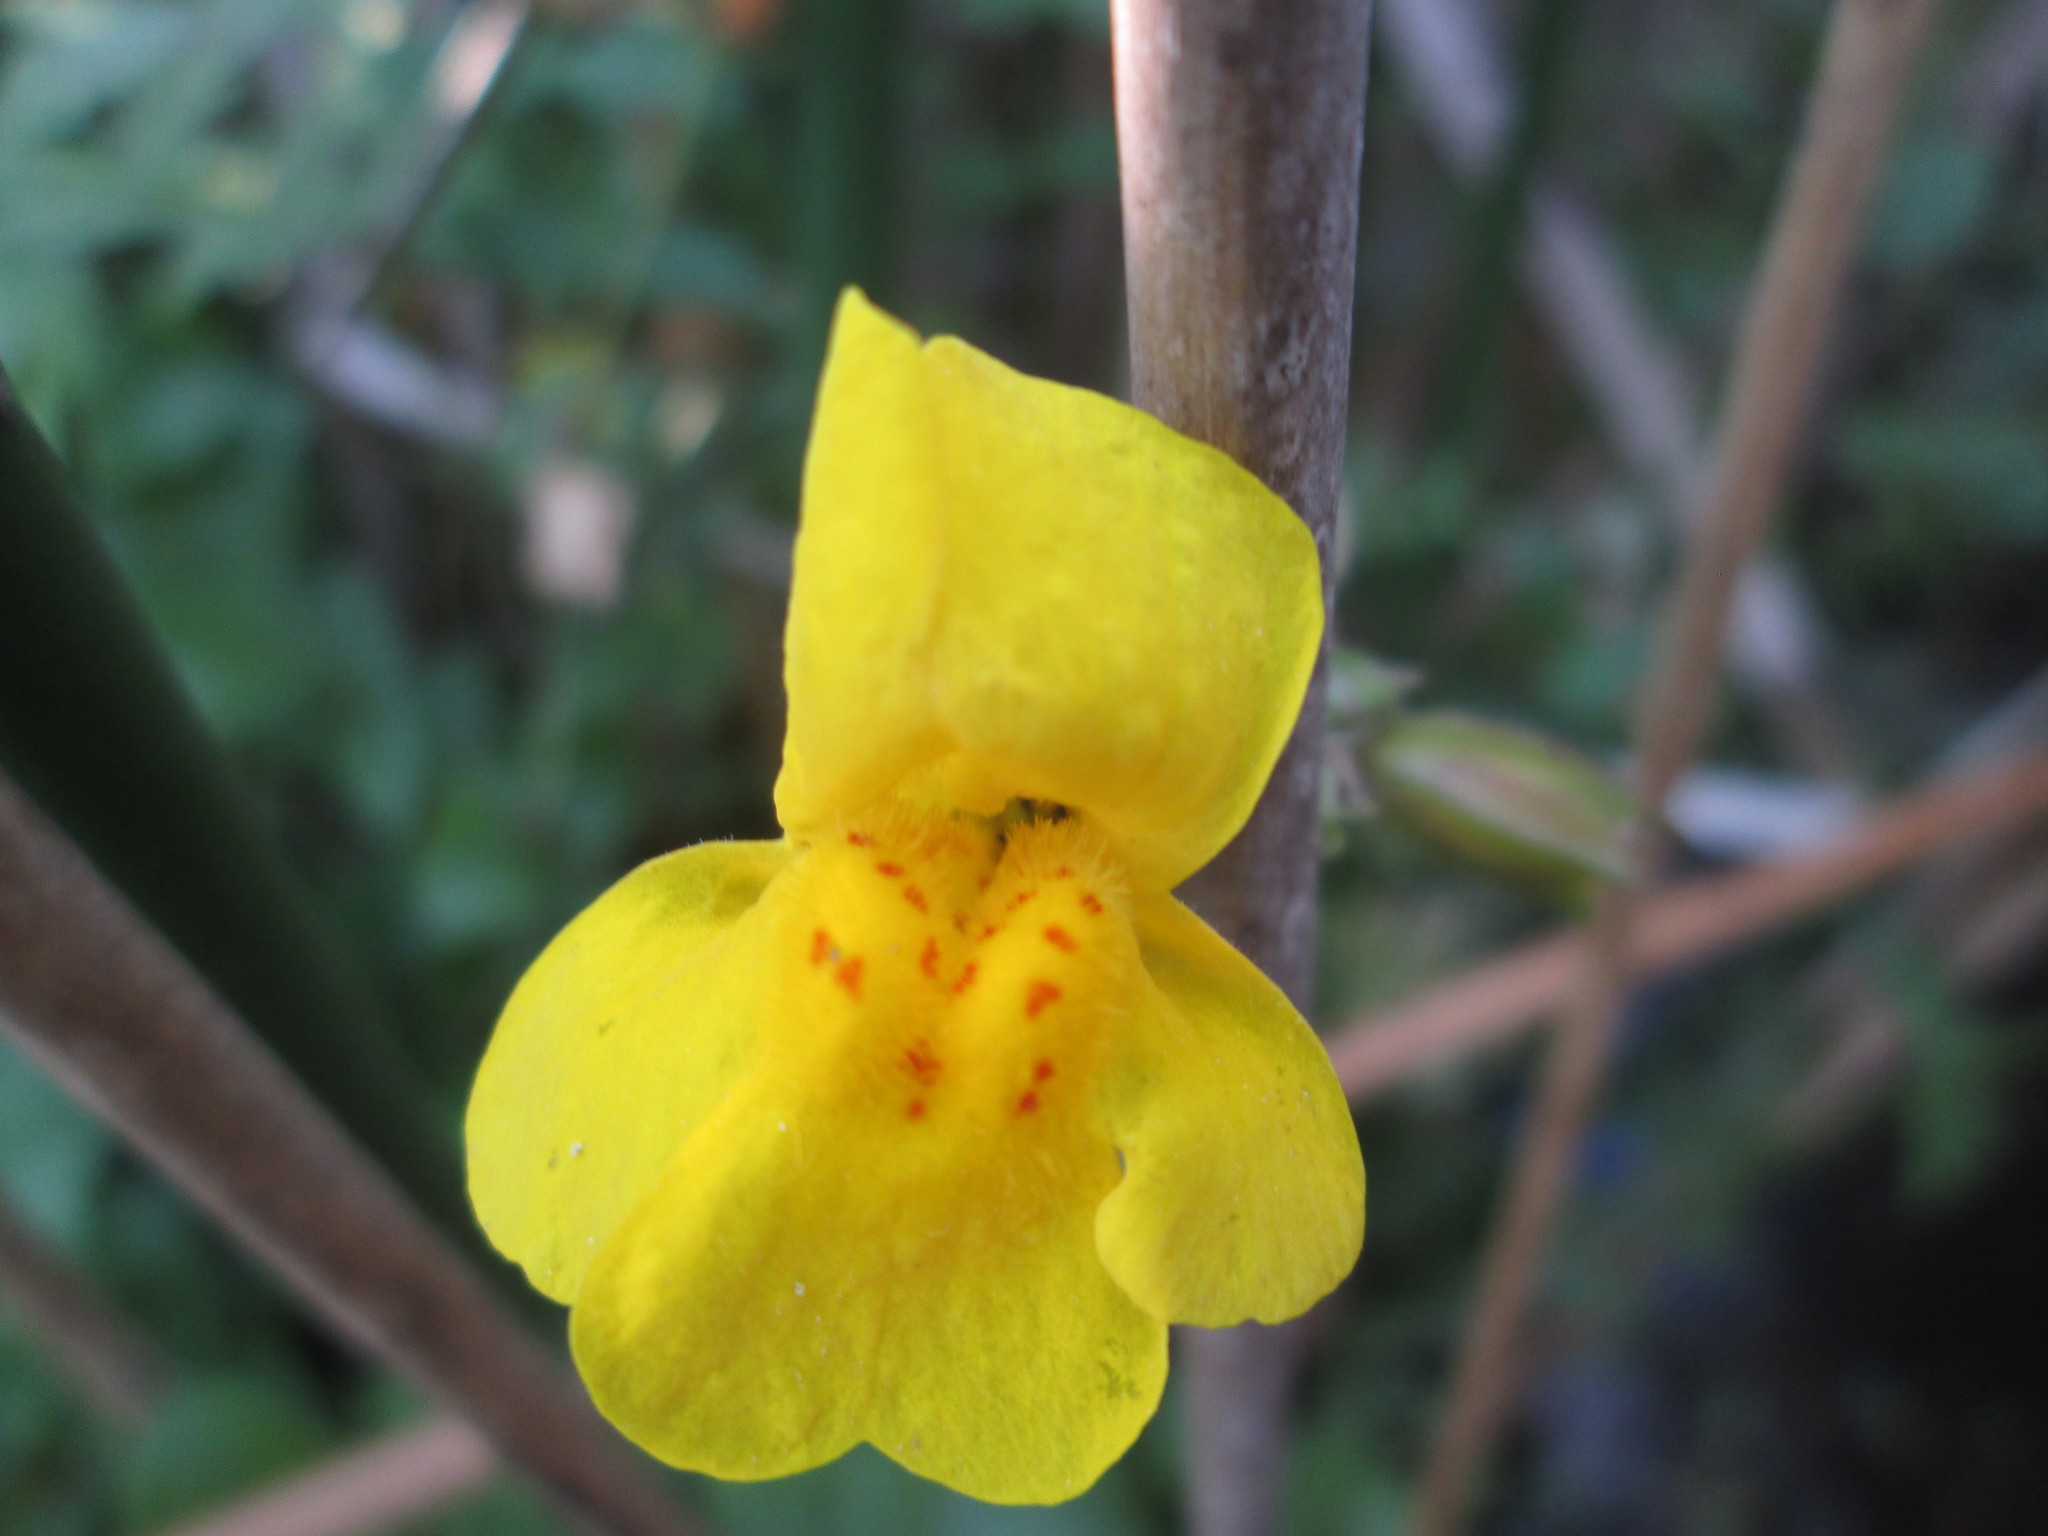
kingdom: Plantae
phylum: Tracheophyta
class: Magnoliopsida
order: Lamiales
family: Phrymaceae
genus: Erythranthe
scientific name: Erythranthe guttata
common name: Monkeyflower
